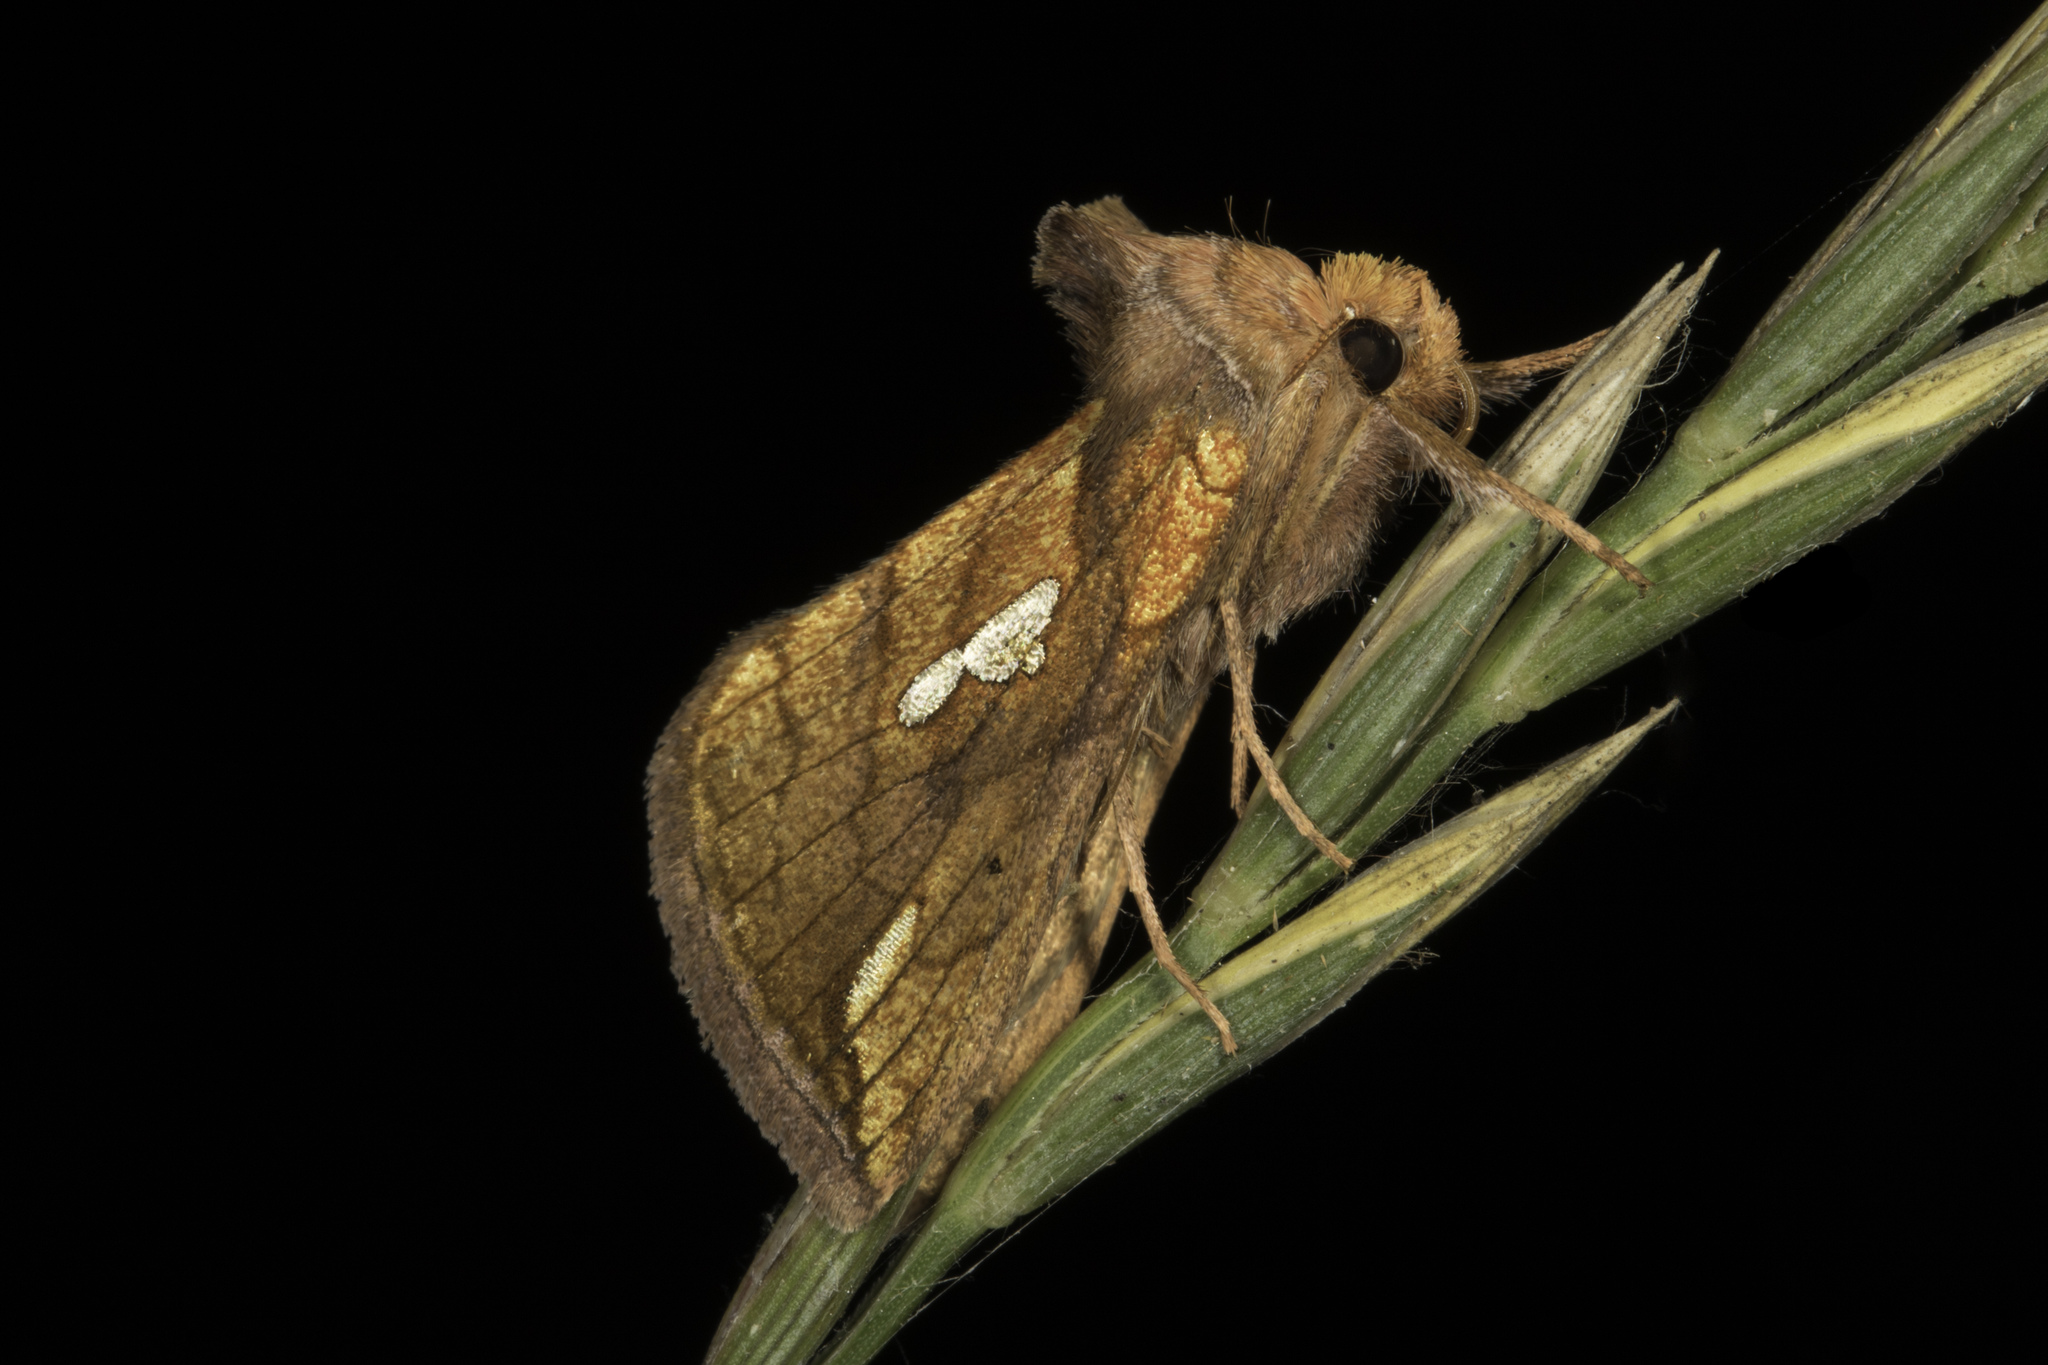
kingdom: Animalia
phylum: Arthropoda
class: Insecta
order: Lepidoptera
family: Noctuidae
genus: Plusia
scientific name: Plusia putnami
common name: Lempke's gold spot
